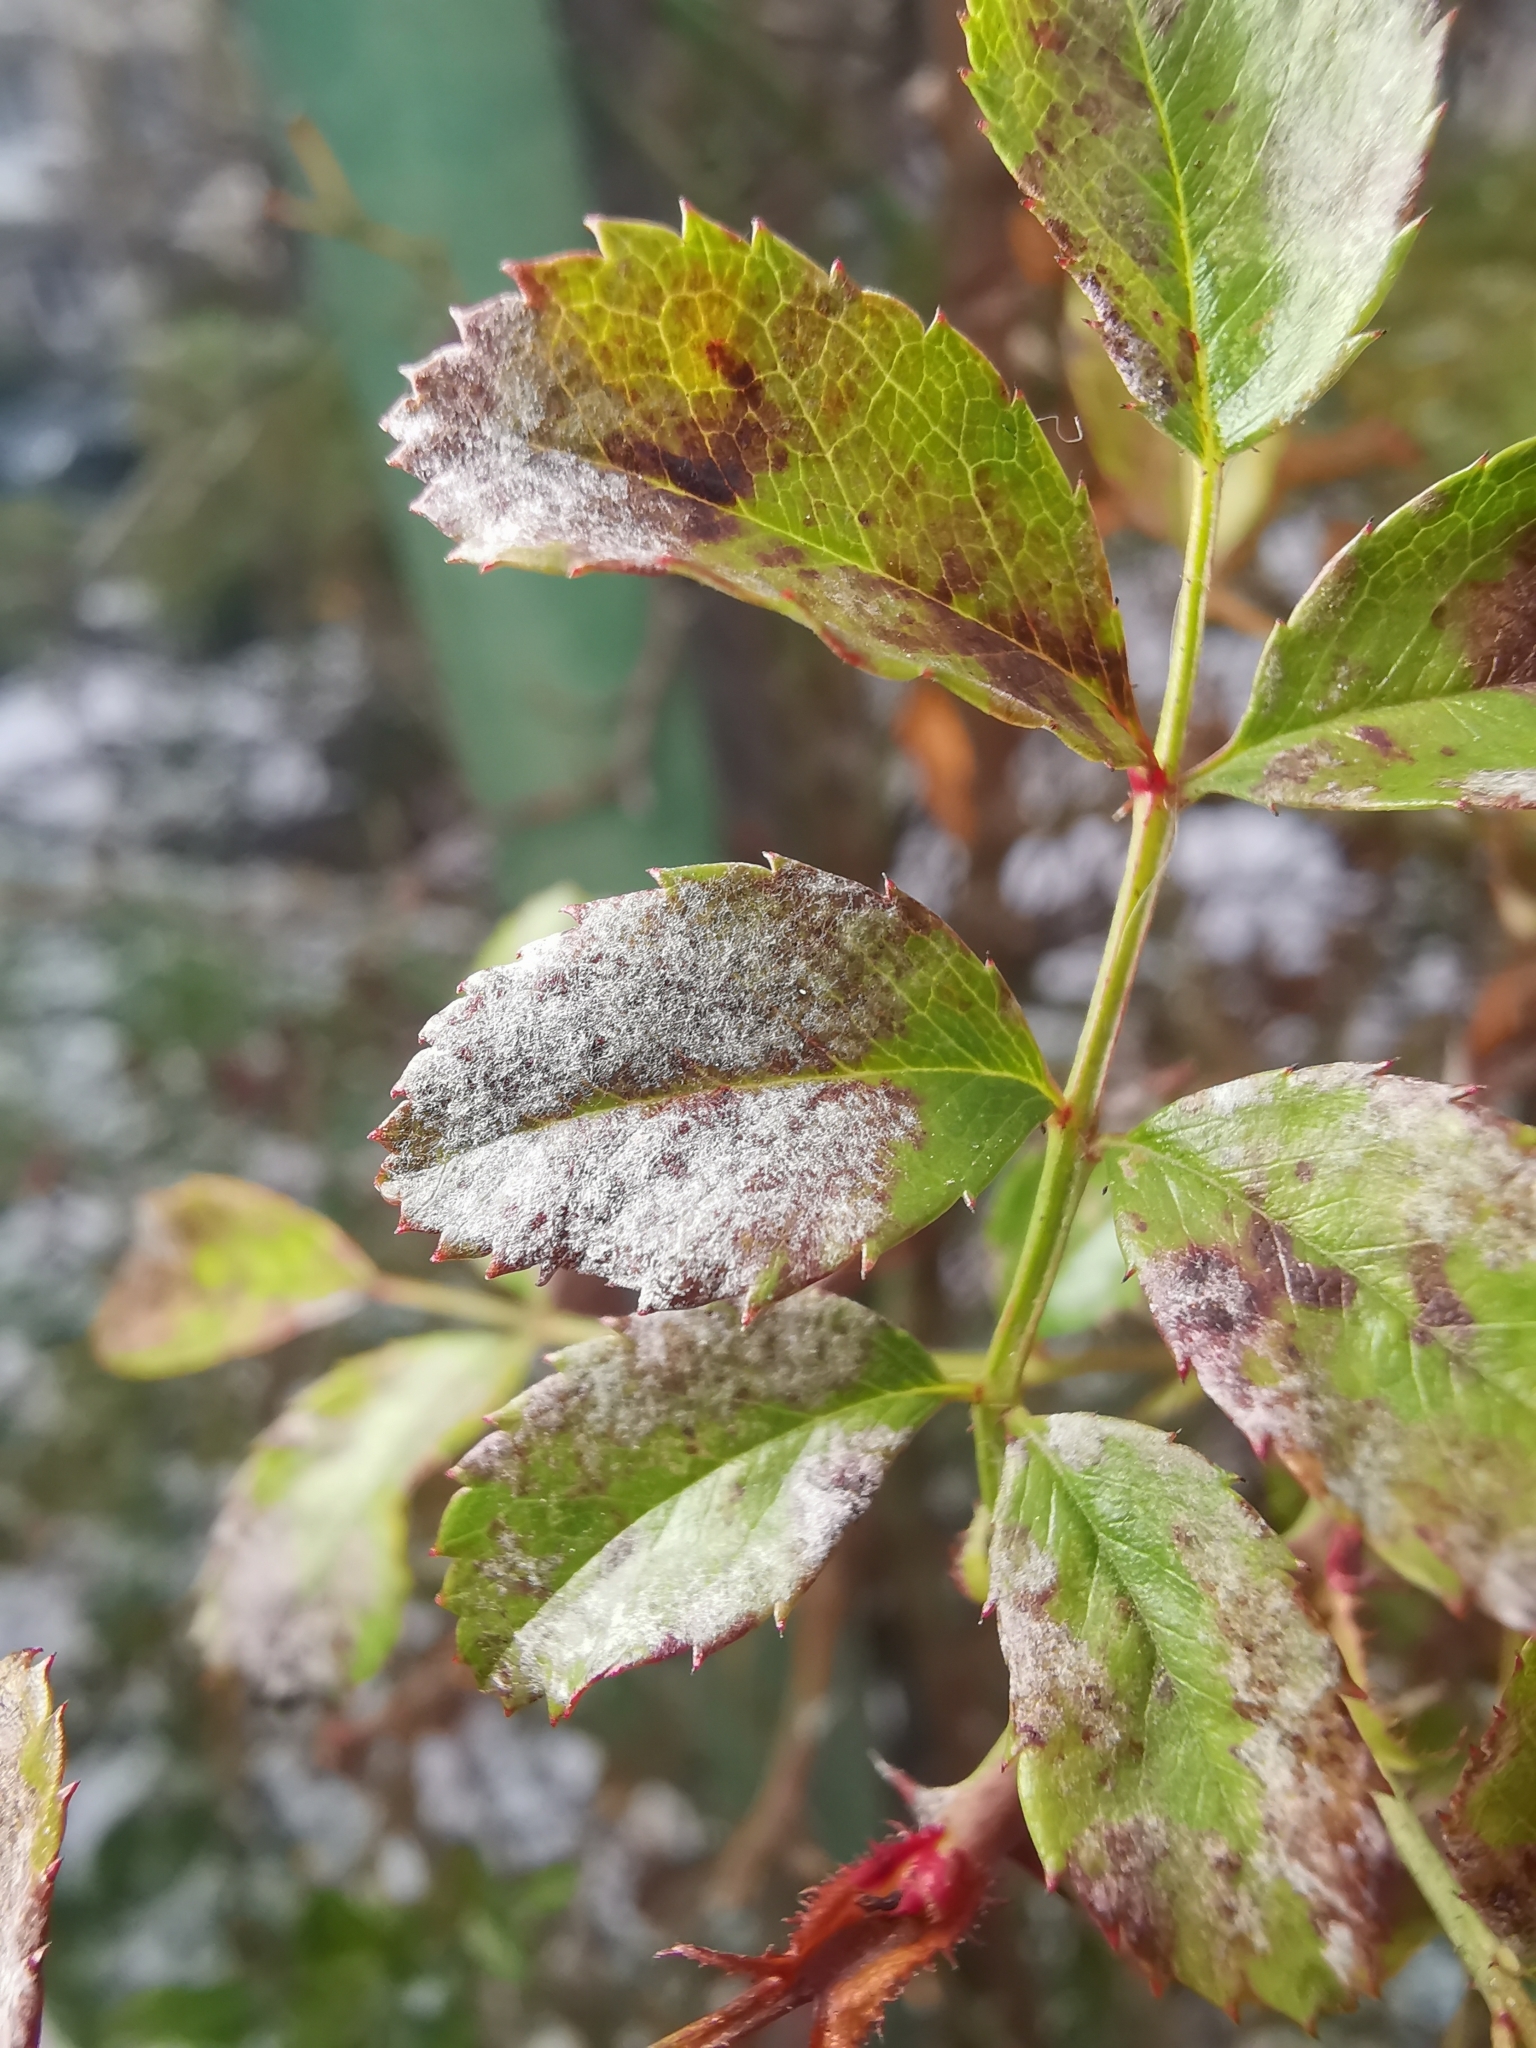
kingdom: Fungi
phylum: Ascomycota
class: Leotiomycetes
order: Helotiales
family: Erysiphaceae
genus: Podosphaera
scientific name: Podosphaera pannosa
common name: Rose mildew
